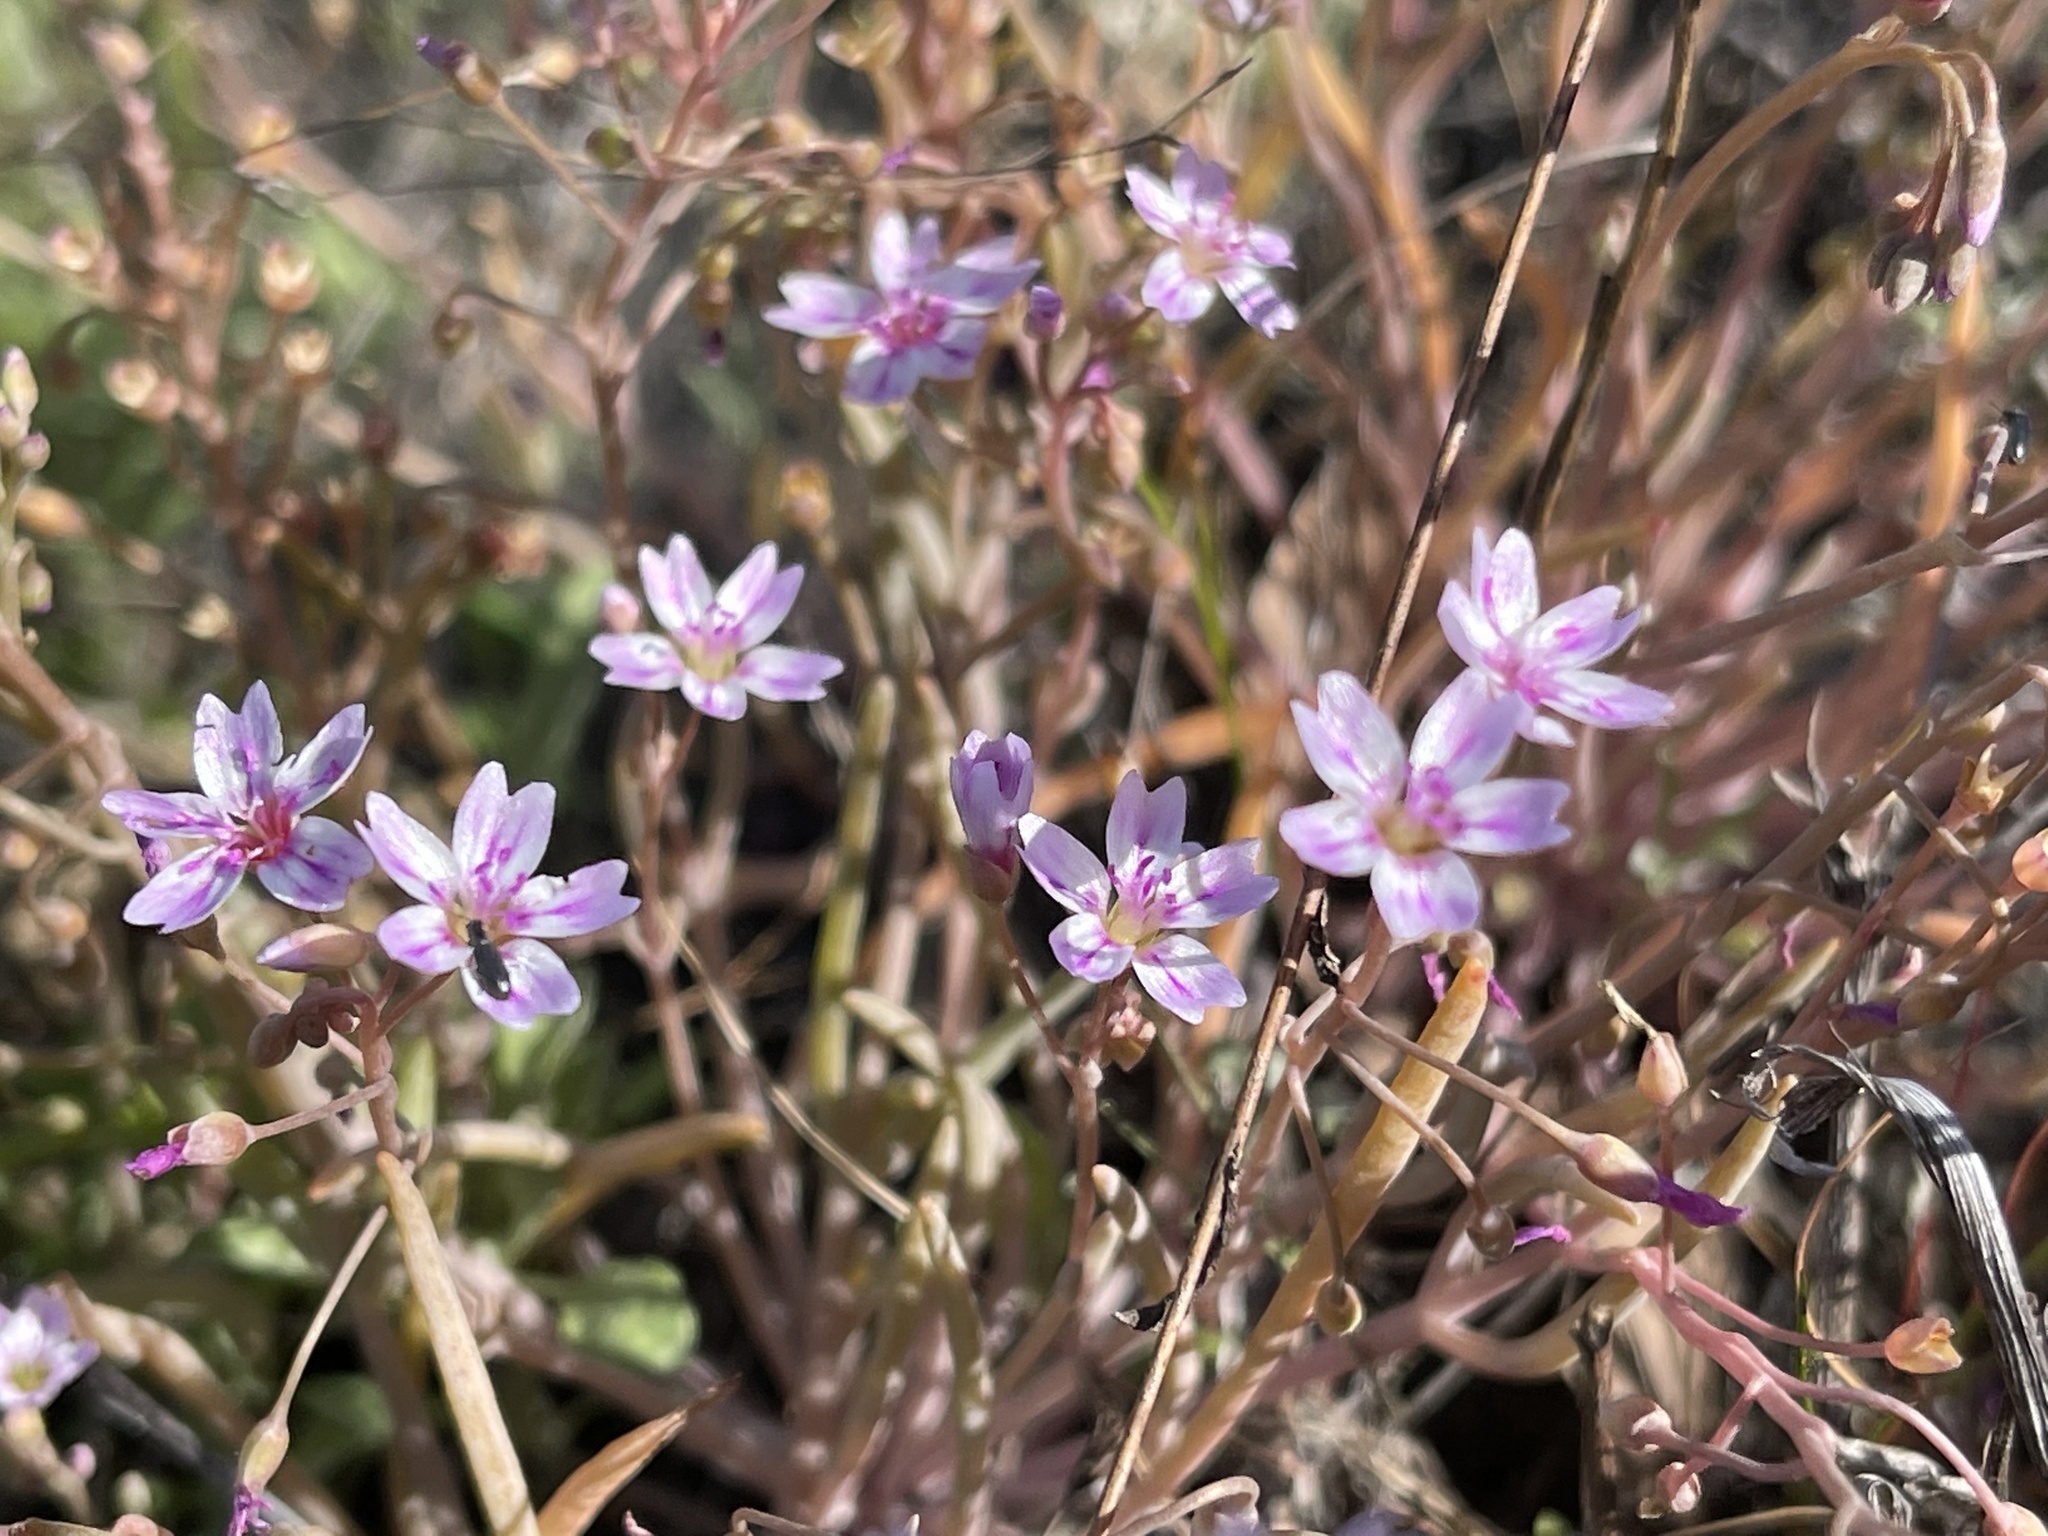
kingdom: Plantae
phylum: Tracheophyta
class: Magnoliopsida
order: Caryophyllales
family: Montiaceae
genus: Claytonia
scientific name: Claytonia gypsophiloides
